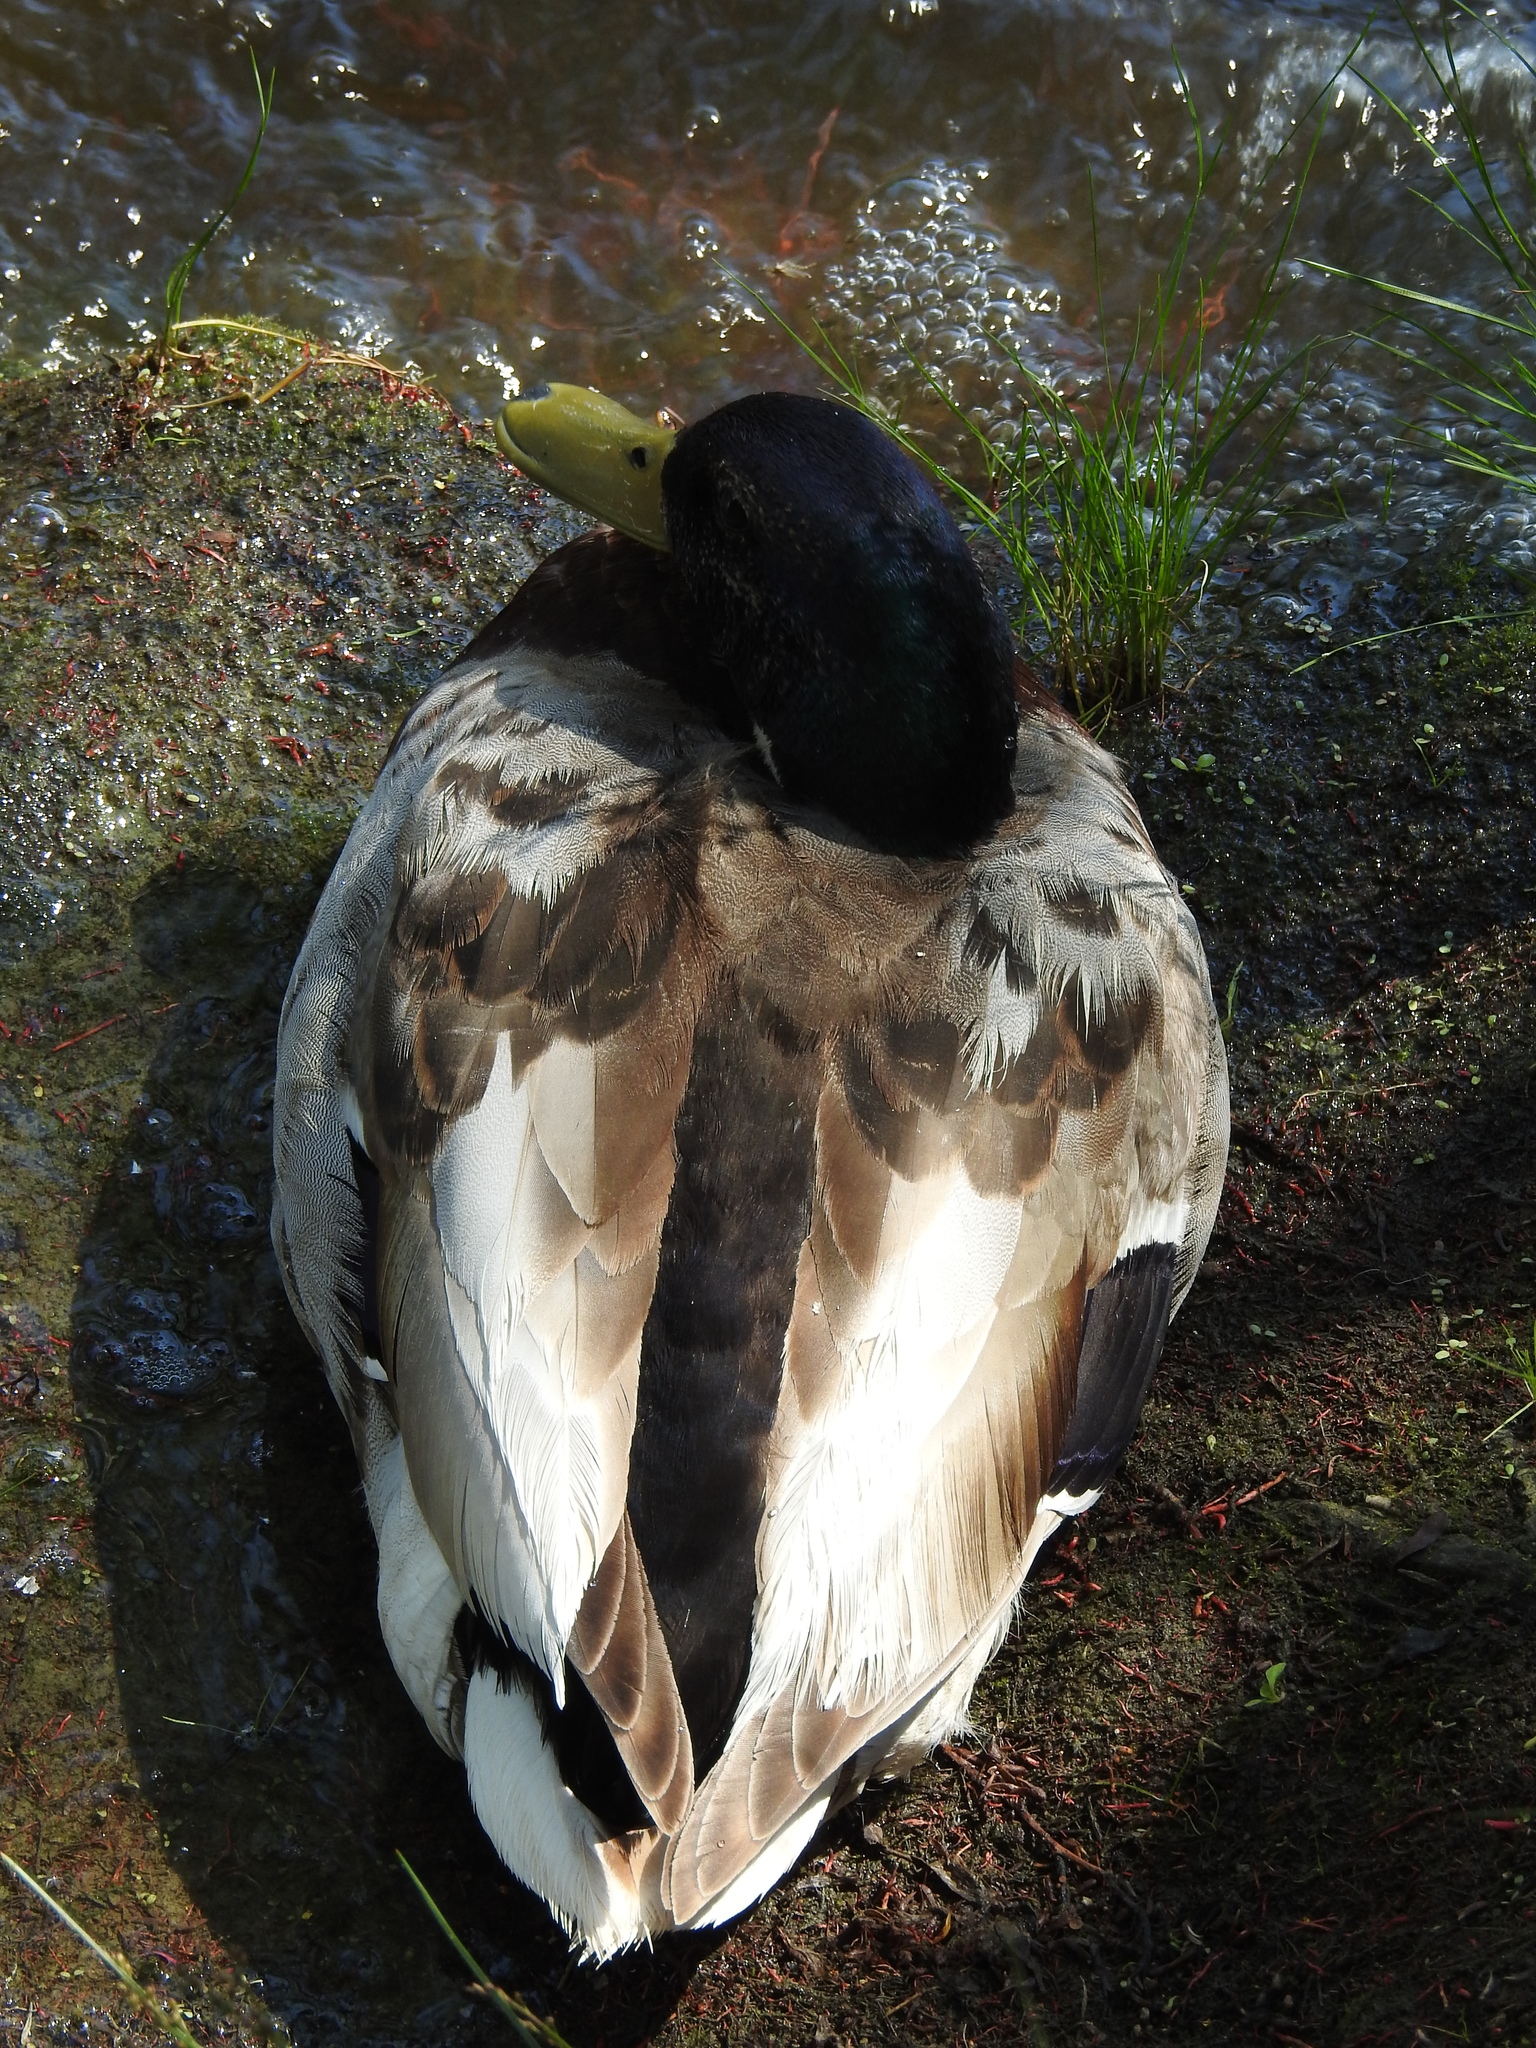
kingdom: Animalia
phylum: Chordata
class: Aves
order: Anseriformes
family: Anatidae
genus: Anas
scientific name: Anas platyrhynchos
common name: Mallard
